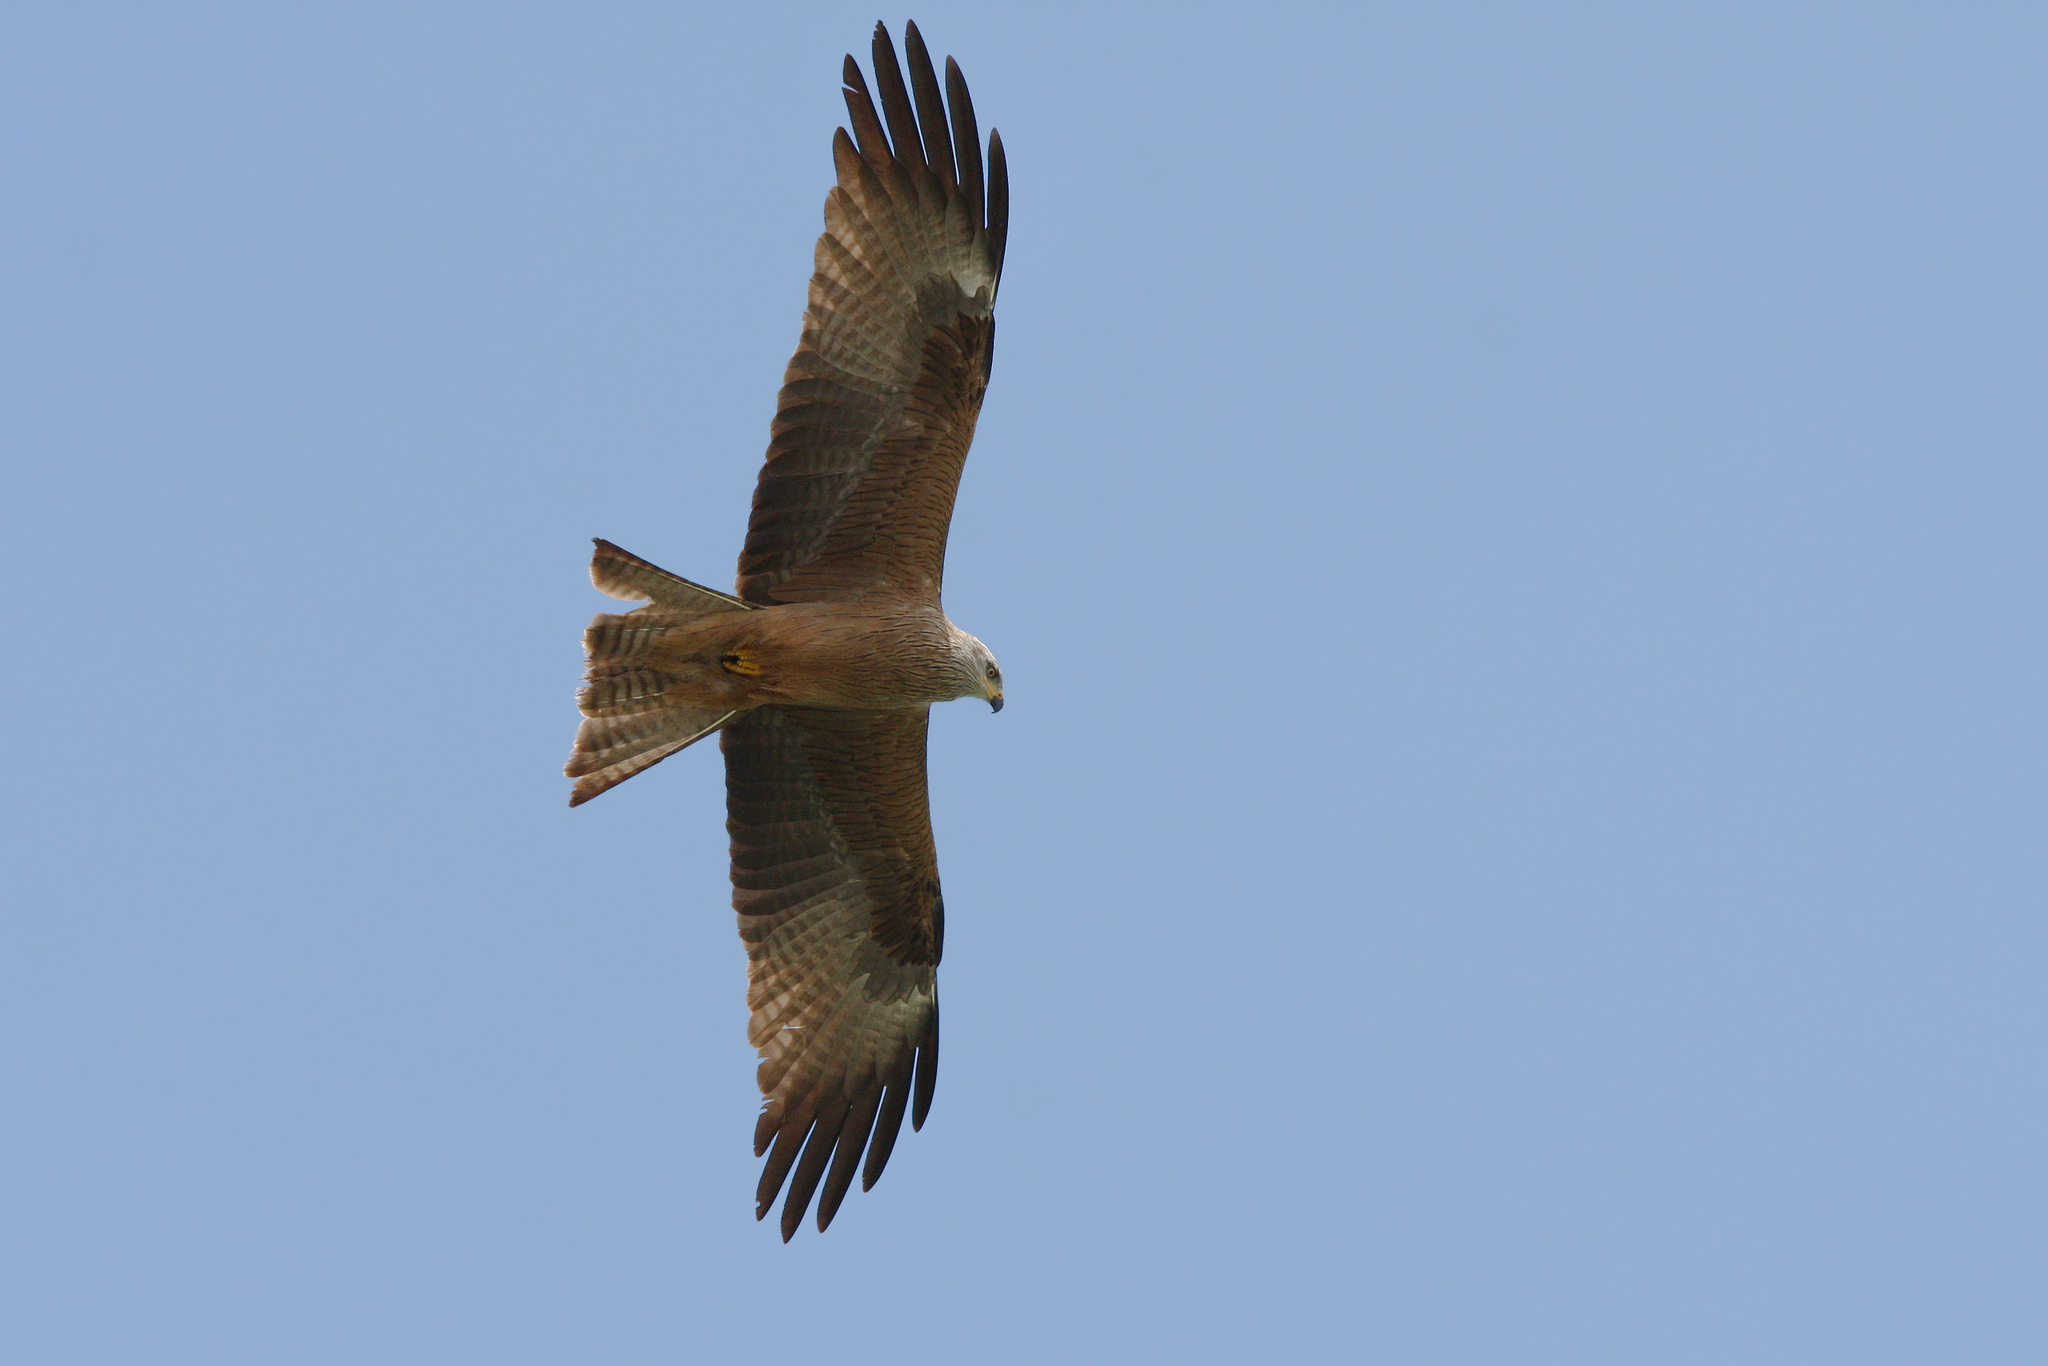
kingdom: Animalia
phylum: Chordata
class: Aves
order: Accipitriformes
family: Accipitridae
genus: Milvus
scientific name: Milvus migrans
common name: Black kite
